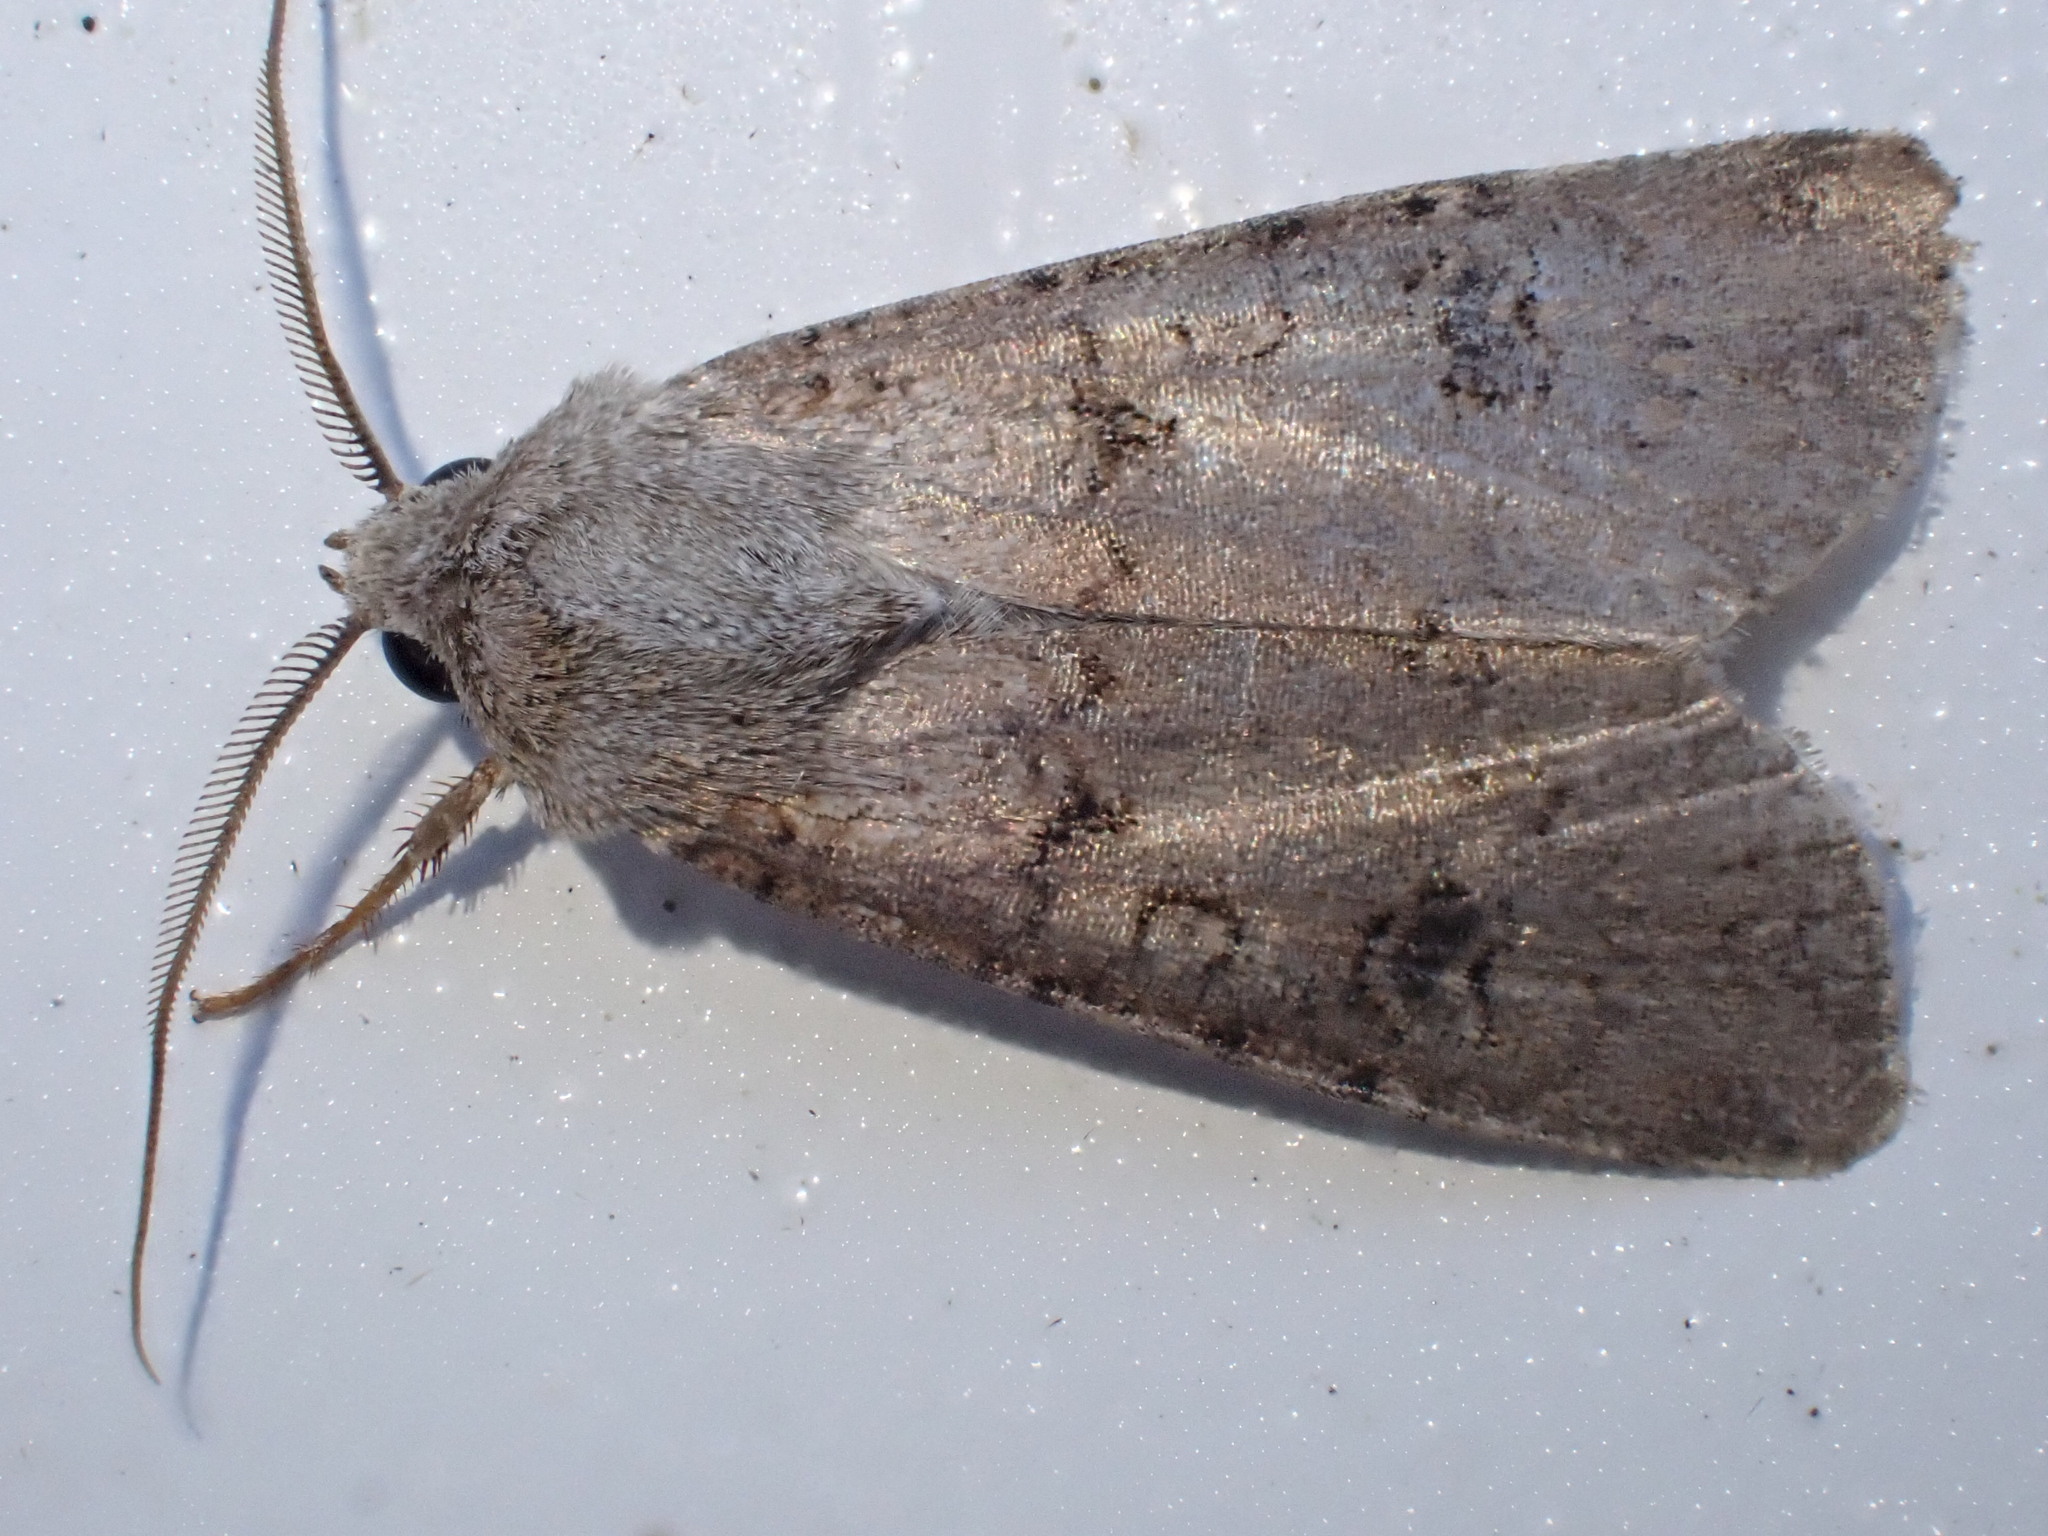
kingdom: Animalia
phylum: Arthropoda
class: Insecta
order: Lepidoptera
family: Noctuidae
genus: Agrotis
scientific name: Agrotis segetum
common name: Turnip moth
